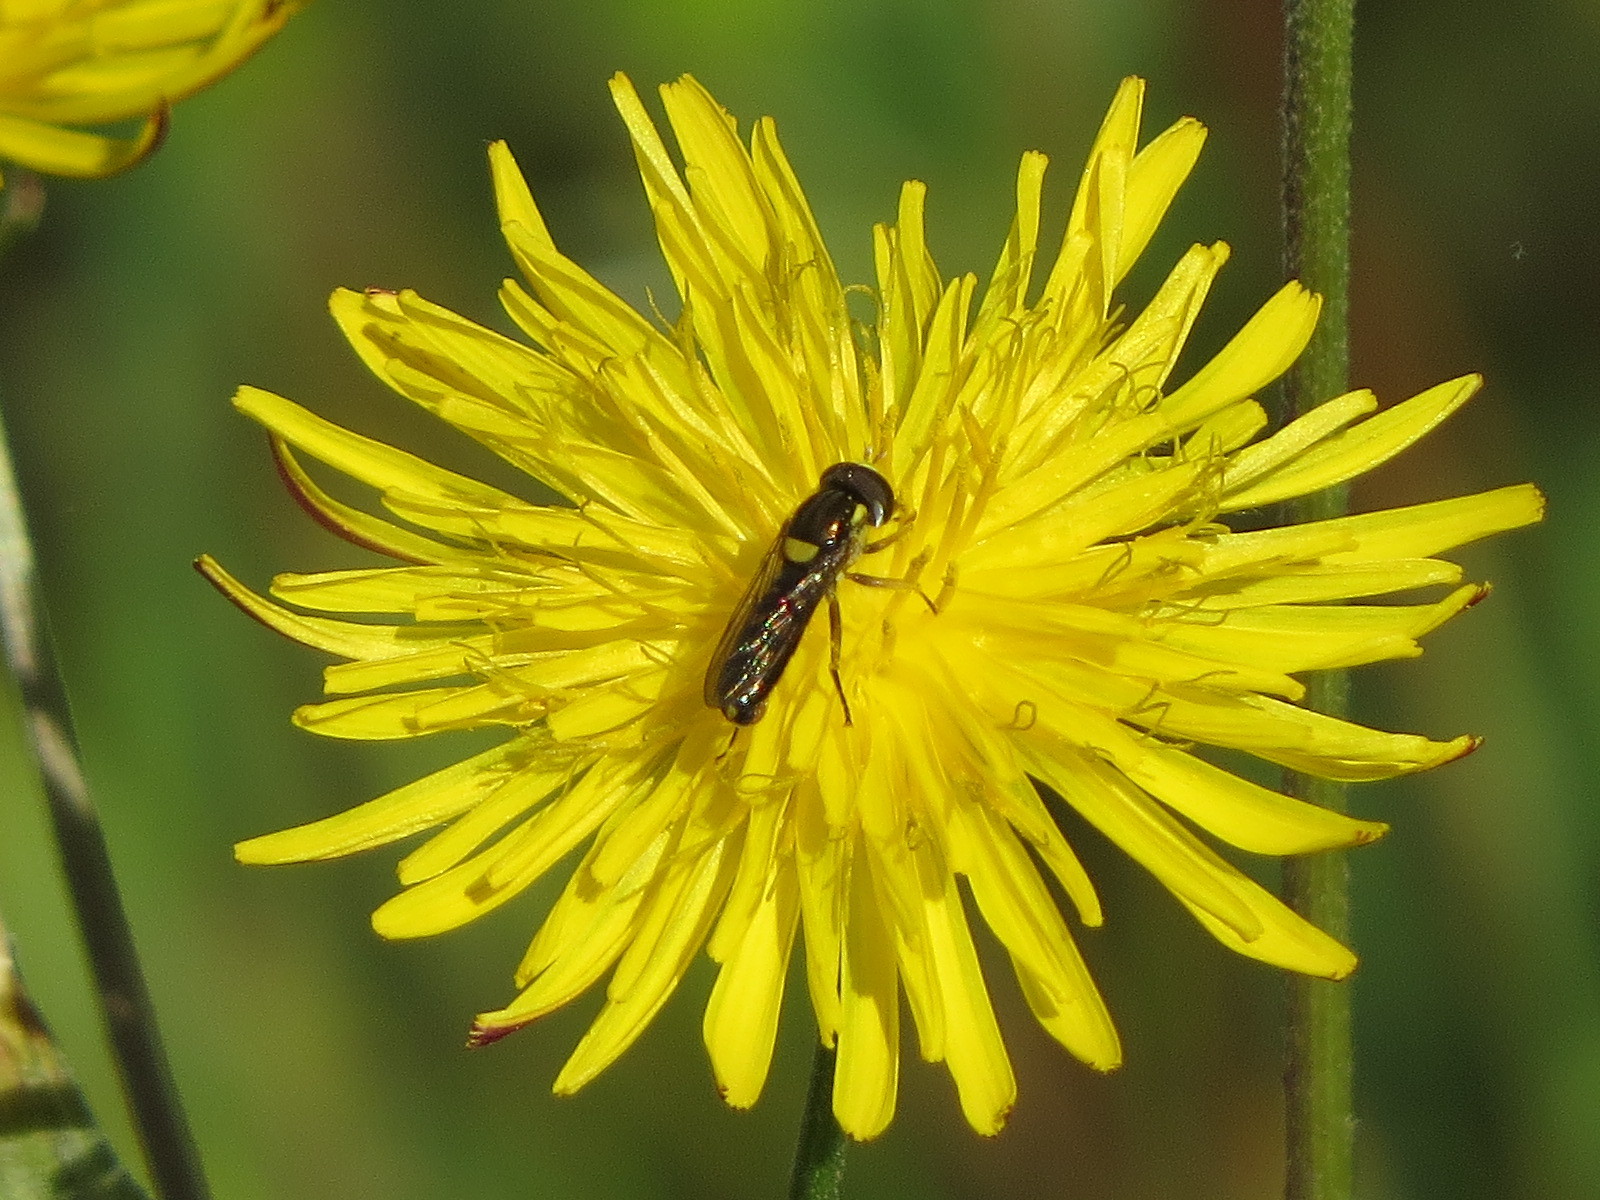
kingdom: Animalia
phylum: Arthropoda
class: Insecta
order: Diptera
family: Syrphidae
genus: Sphaerophoria
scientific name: Sphaerophoria sulphuripes
